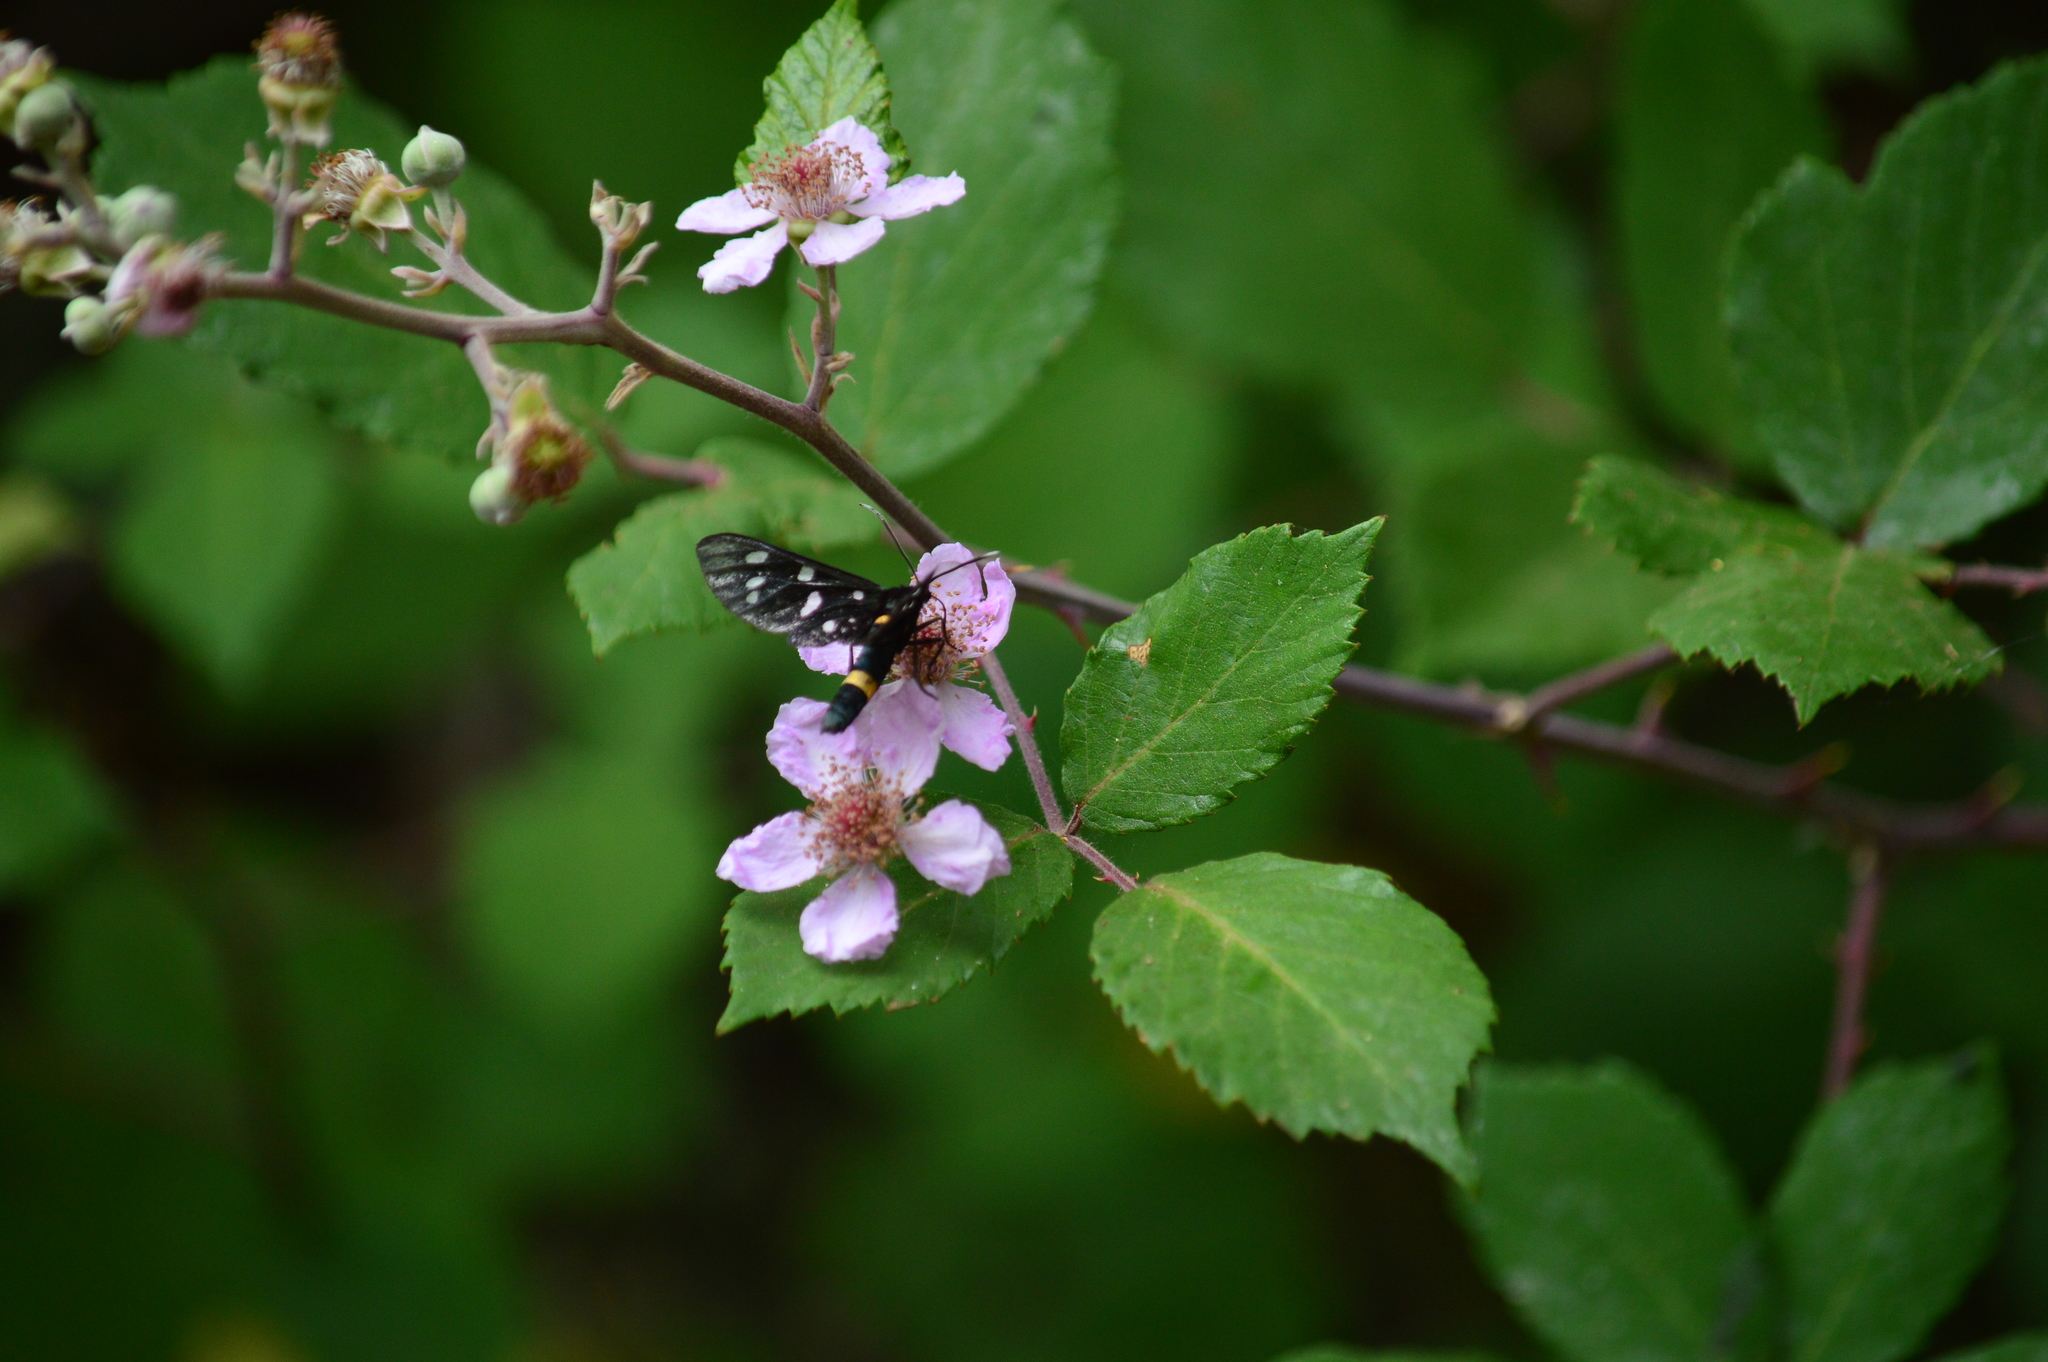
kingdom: Animalia
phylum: Arthropoda
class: Insecta
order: Lepidoptera
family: Erebidae
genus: Amata
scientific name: Amata phegea
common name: Nine-spotted
